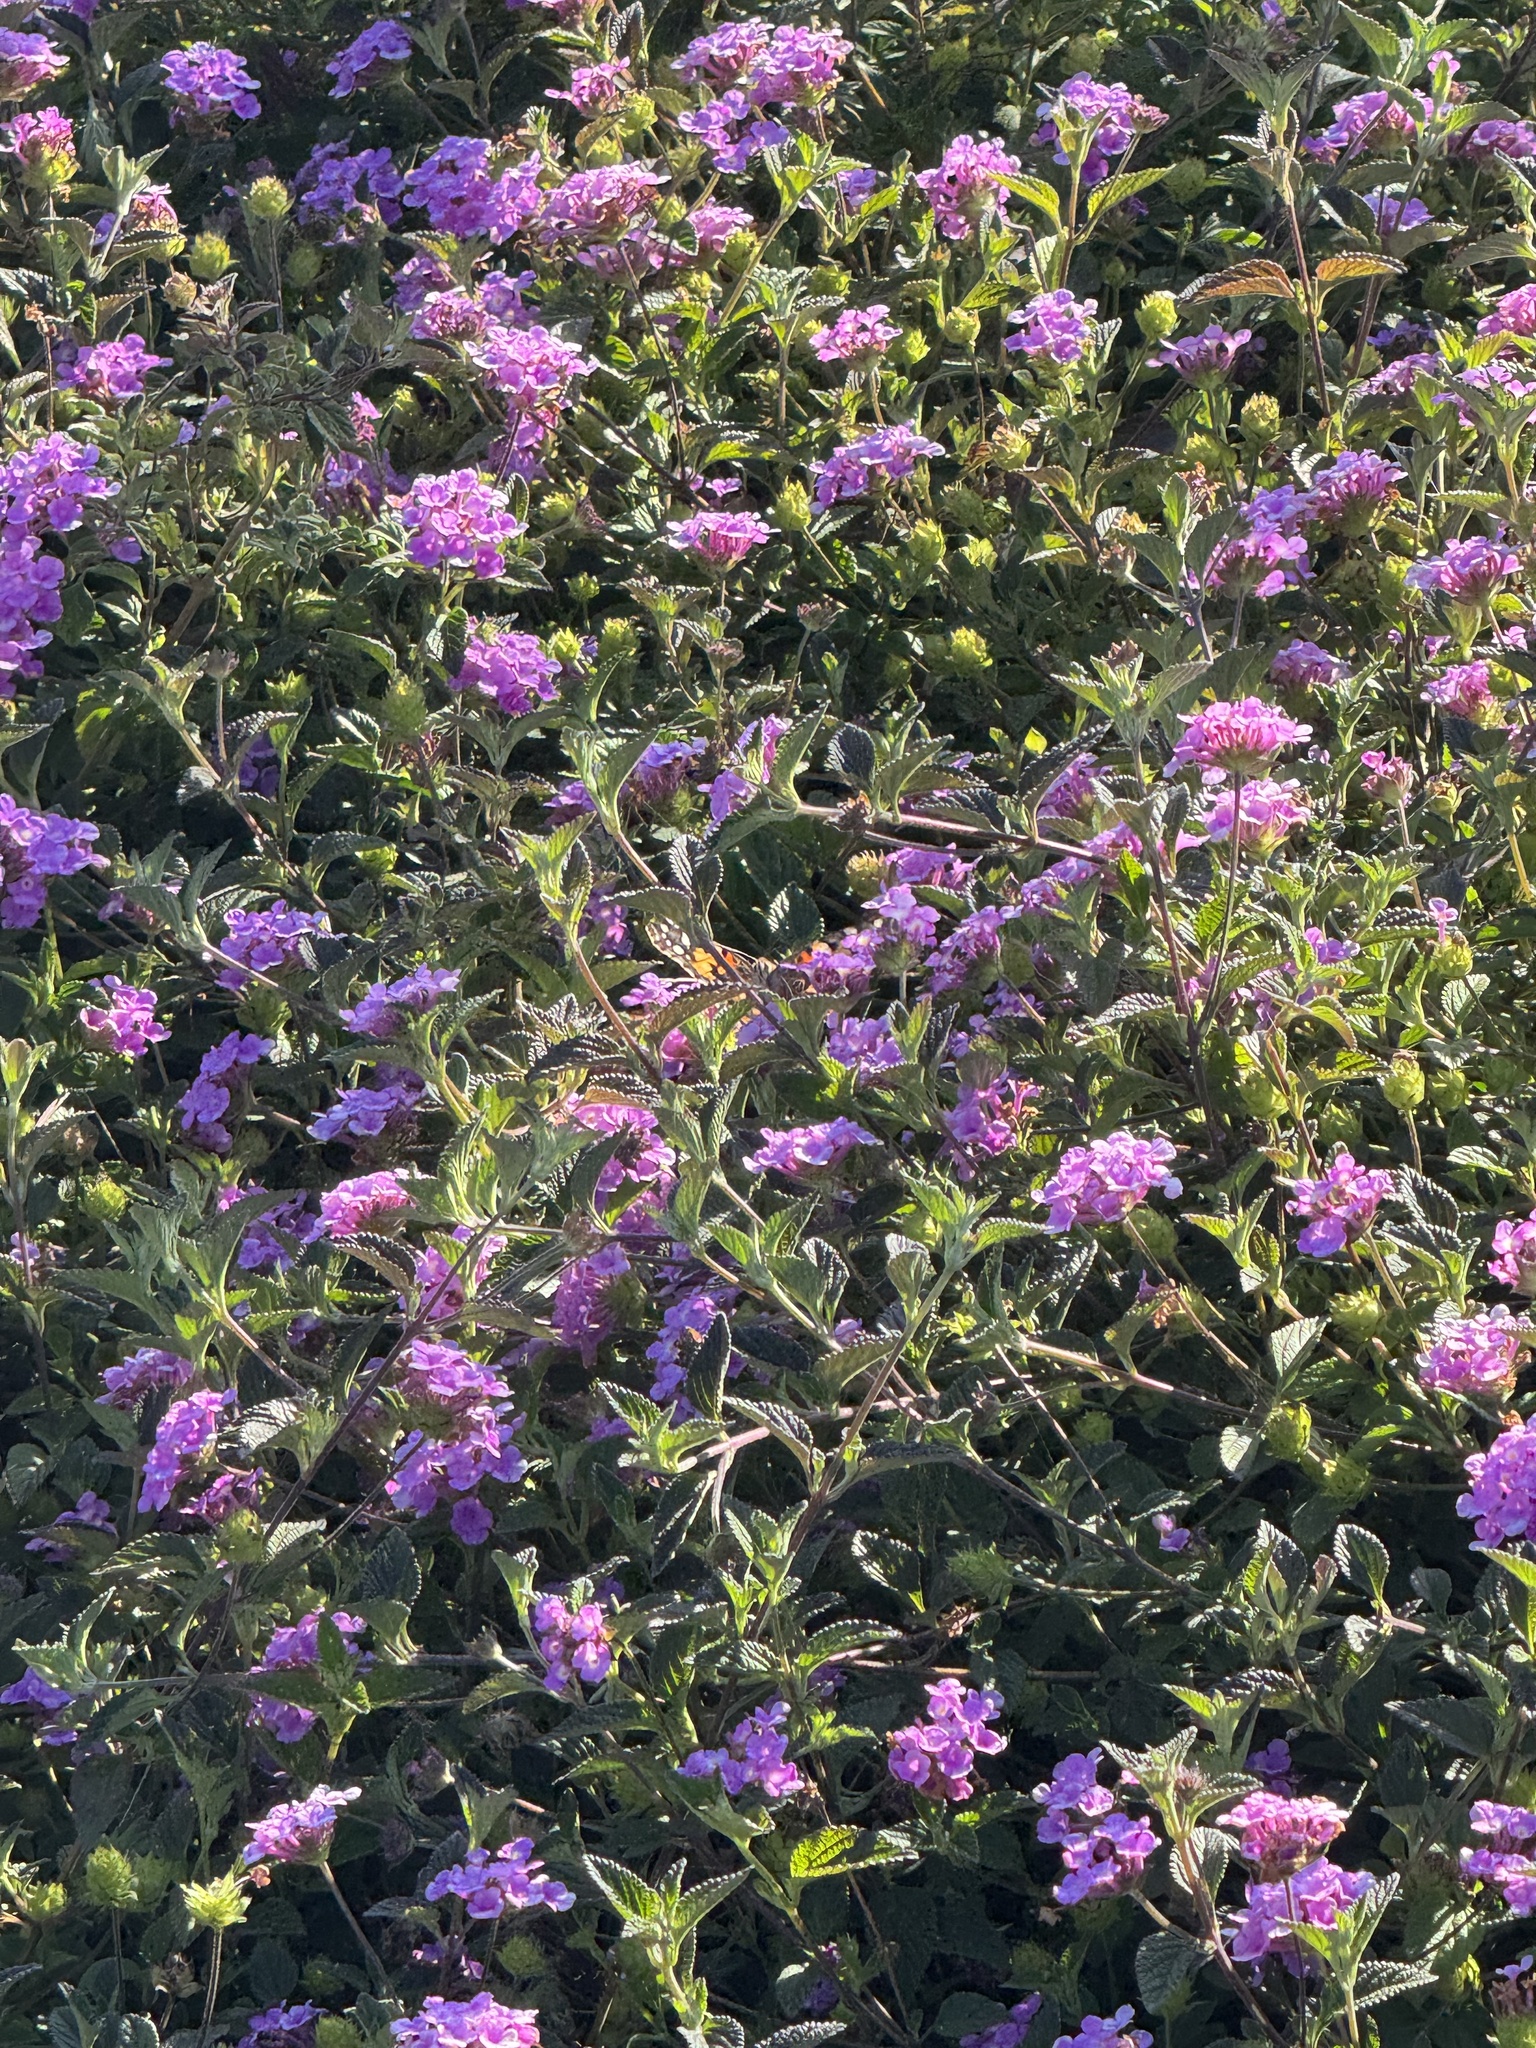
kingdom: Animalia
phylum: Arthropoda
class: Insecta
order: Lepidoptera
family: Nymphalidae
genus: Vanessa
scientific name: Vanessa cardui
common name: Painted lady
